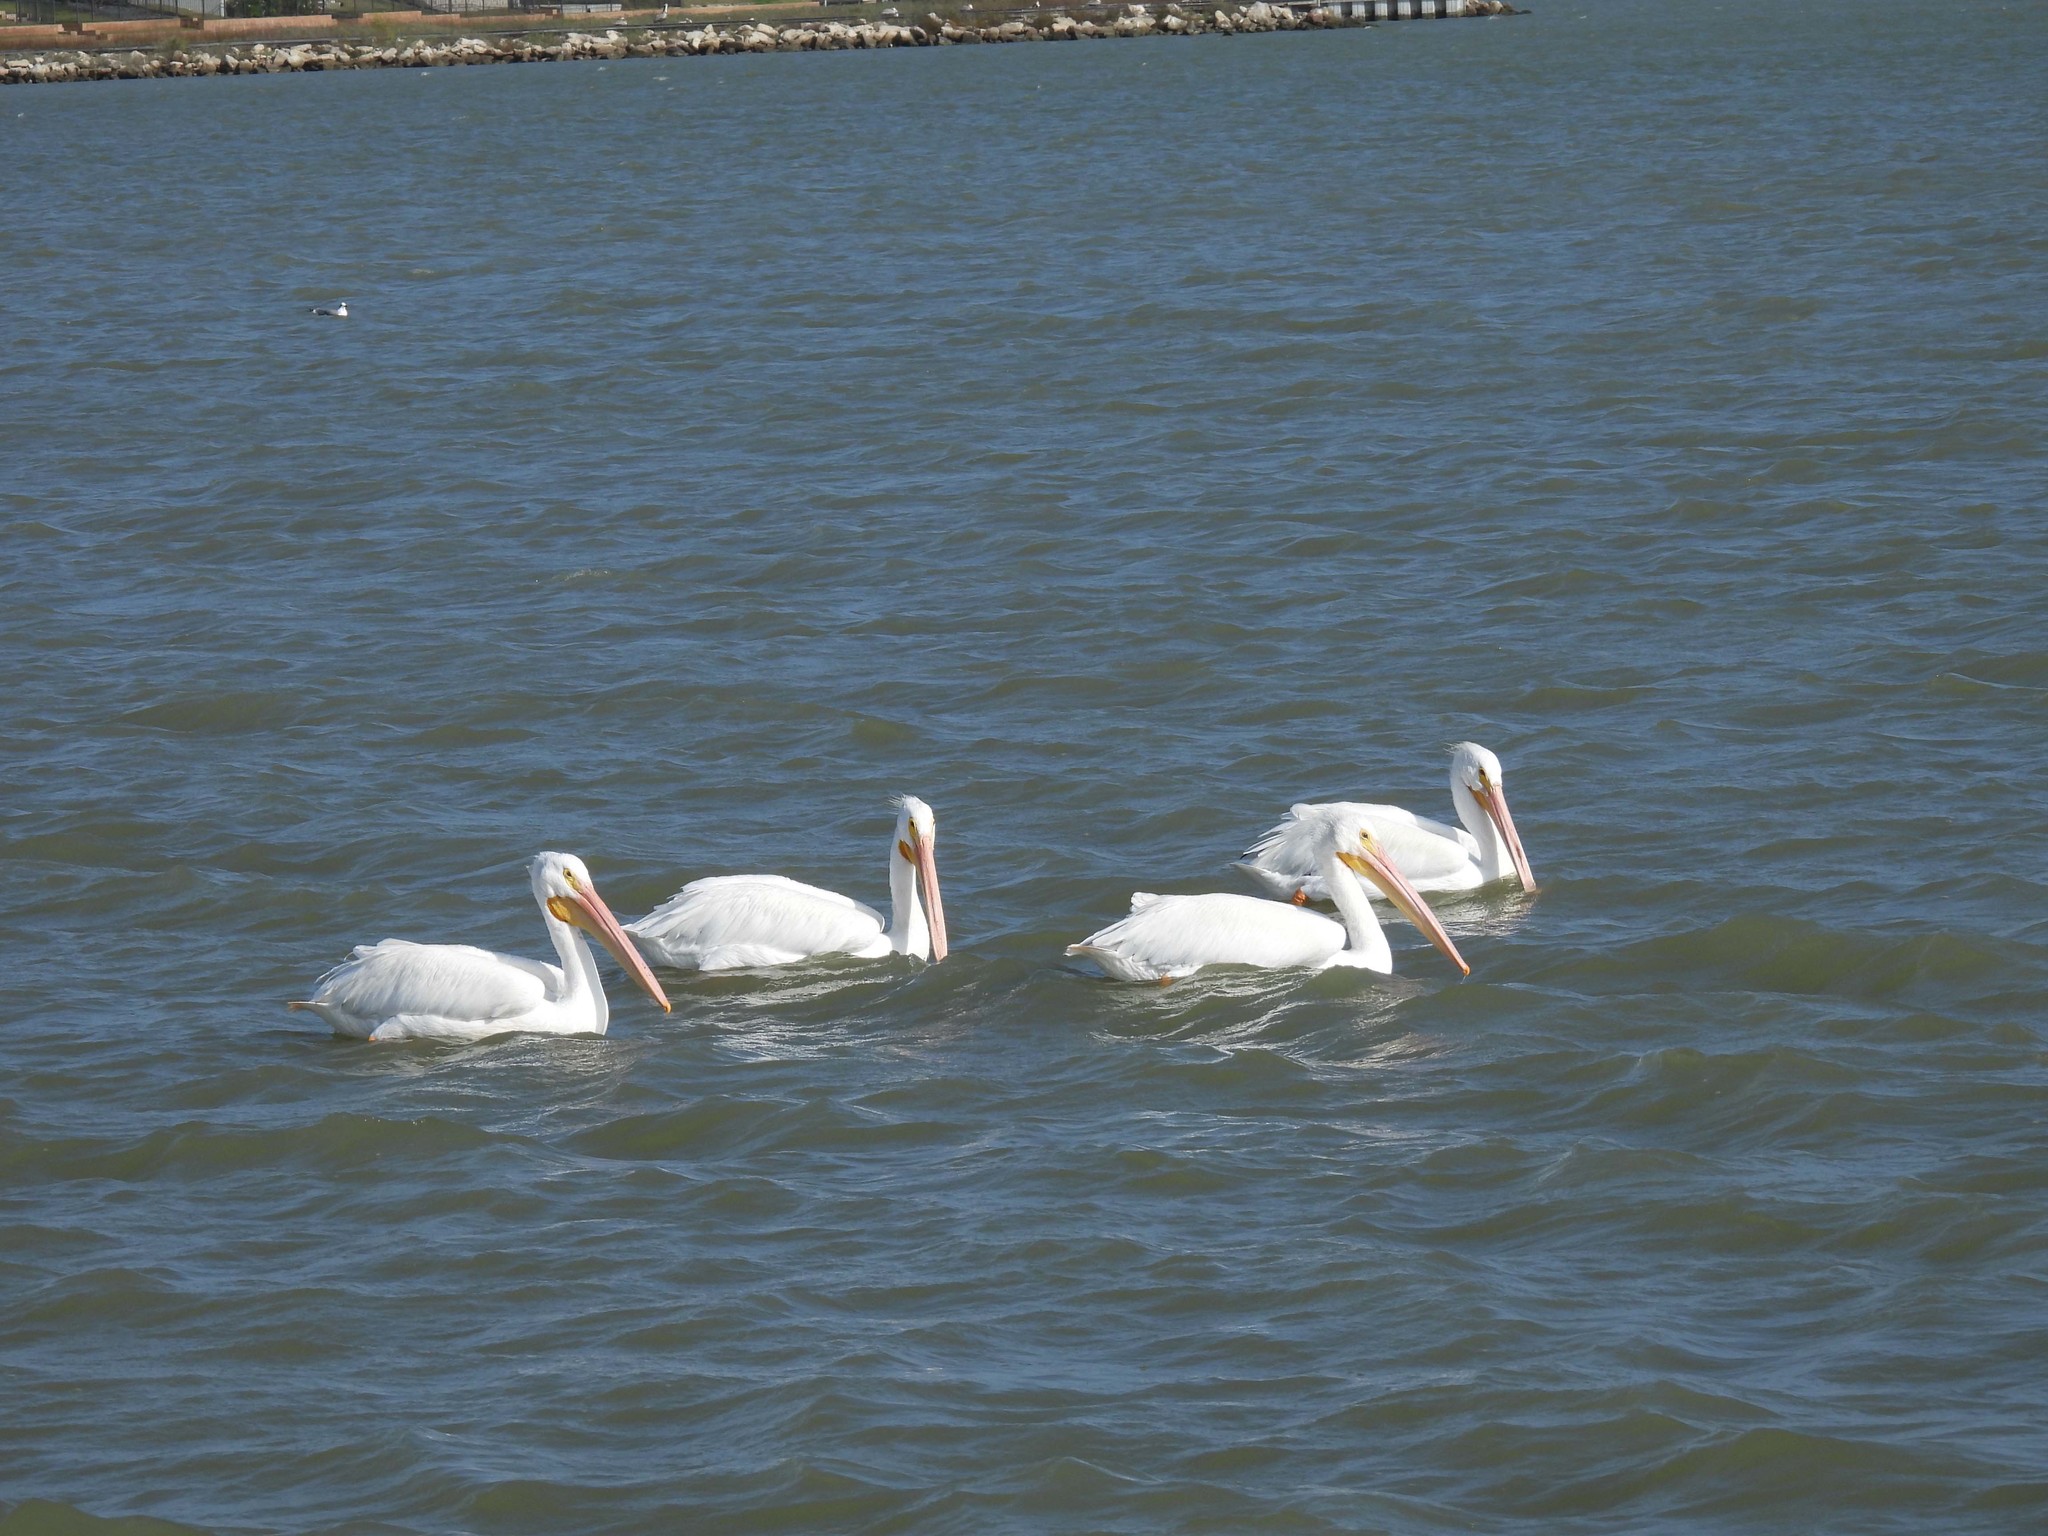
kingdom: Animalia
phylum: Chordata
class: Aves
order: Pelecaniformes
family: Pelecanidae
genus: Pelecanus
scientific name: Pelecanus erythrorhynchos
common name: American white pelican
